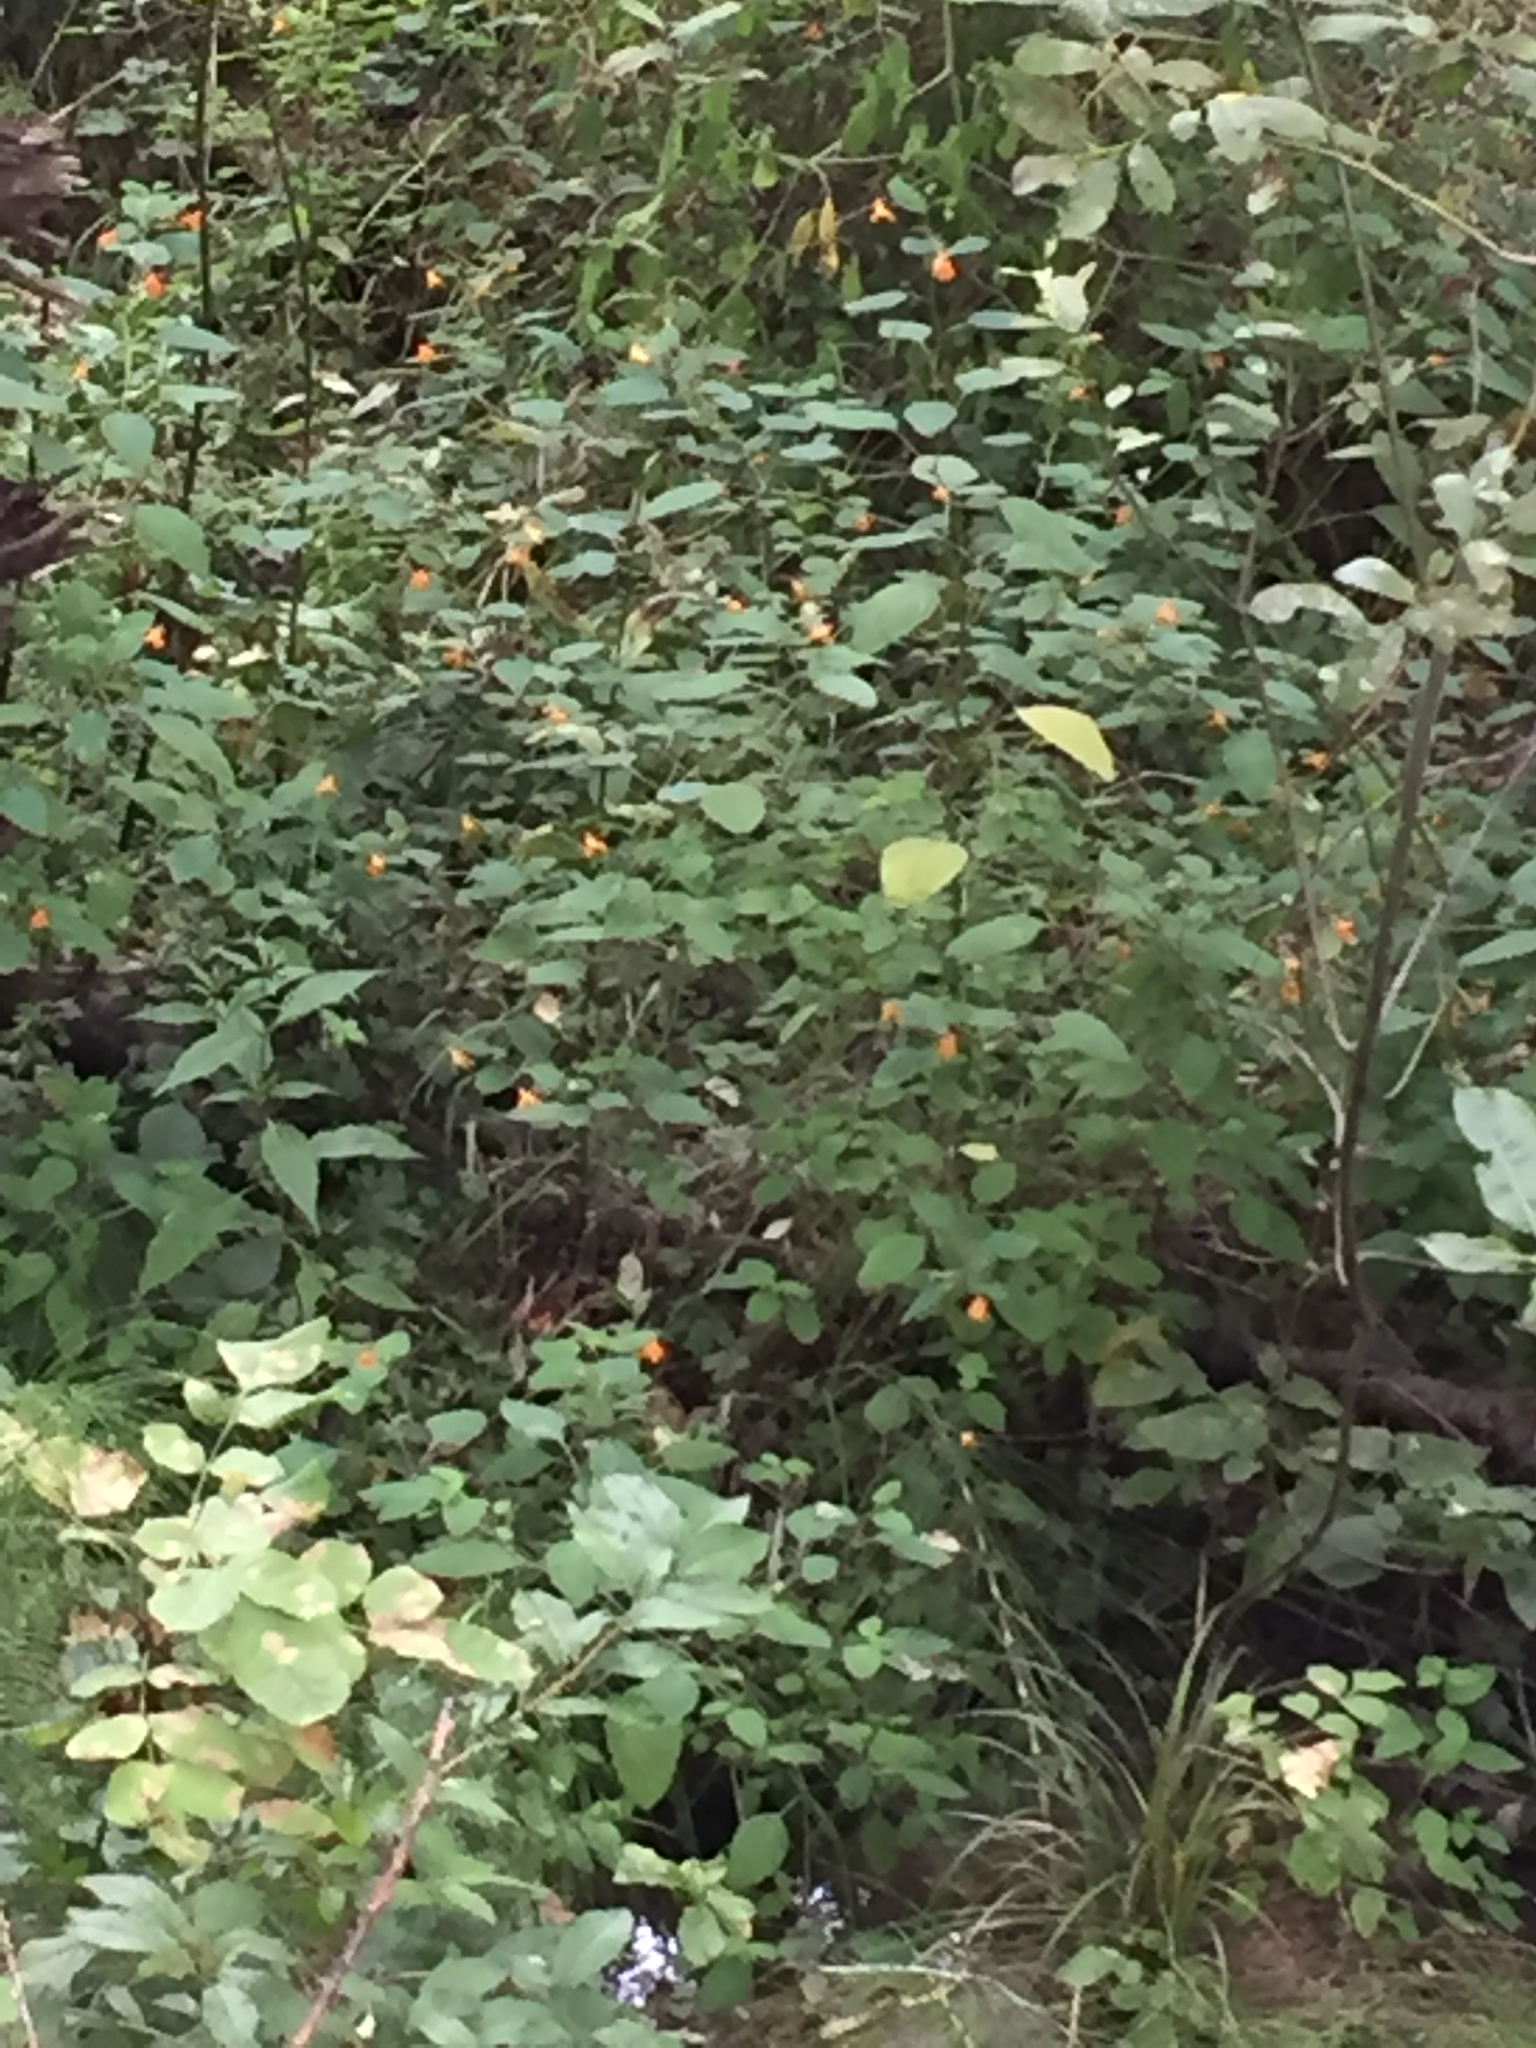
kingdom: Plantae
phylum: Tracheophyta
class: Magnoliopsida
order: Ericales
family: Balsaminaceae
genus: Impatiens
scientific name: Impatiens capensis
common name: Orange balsam
